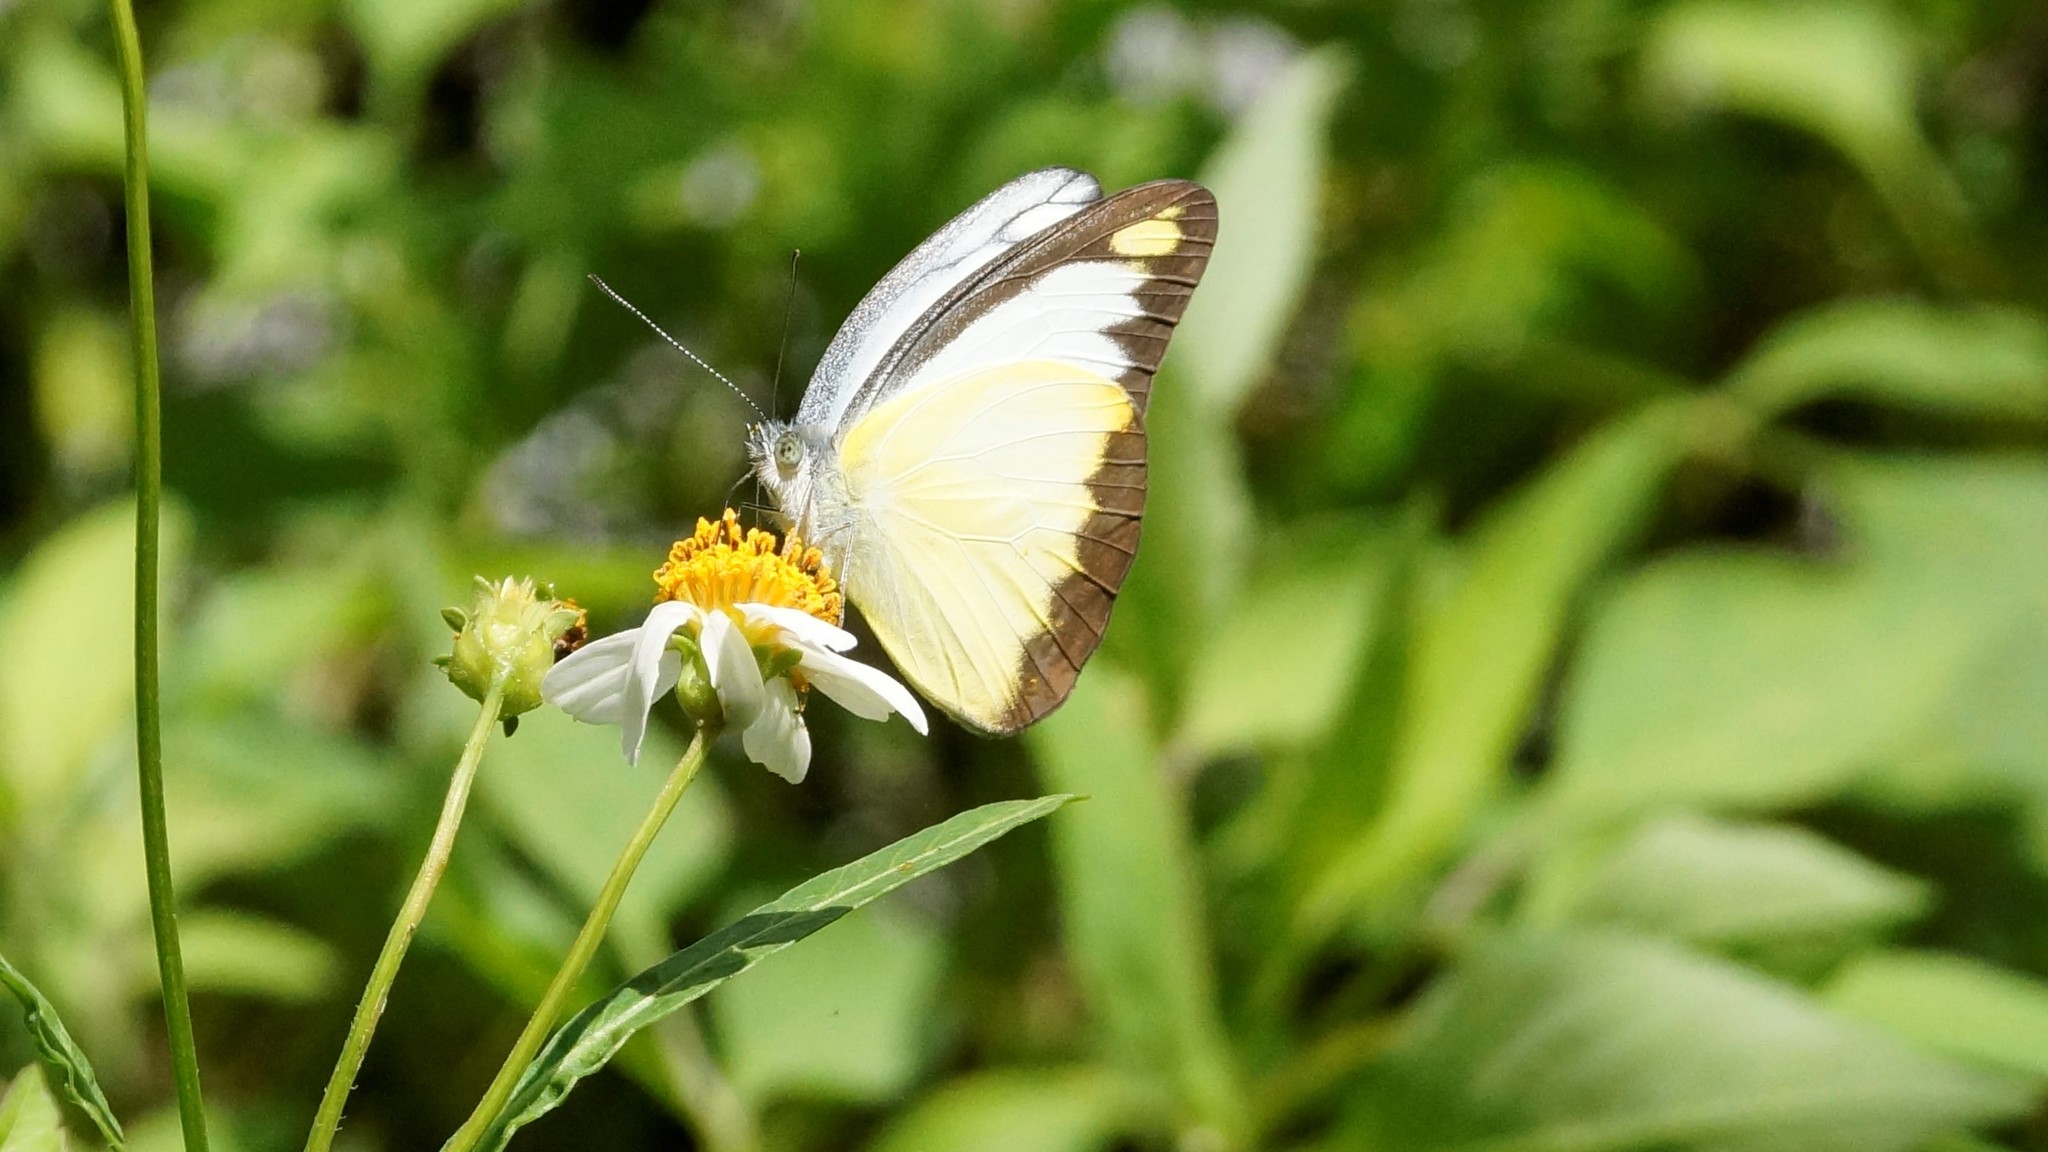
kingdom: Animalia
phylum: Arthropoda
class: Insecta
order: Lepidoptera
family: Pieridae
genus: Appias
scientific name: Appias lyncida
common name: Chocolate albatross
